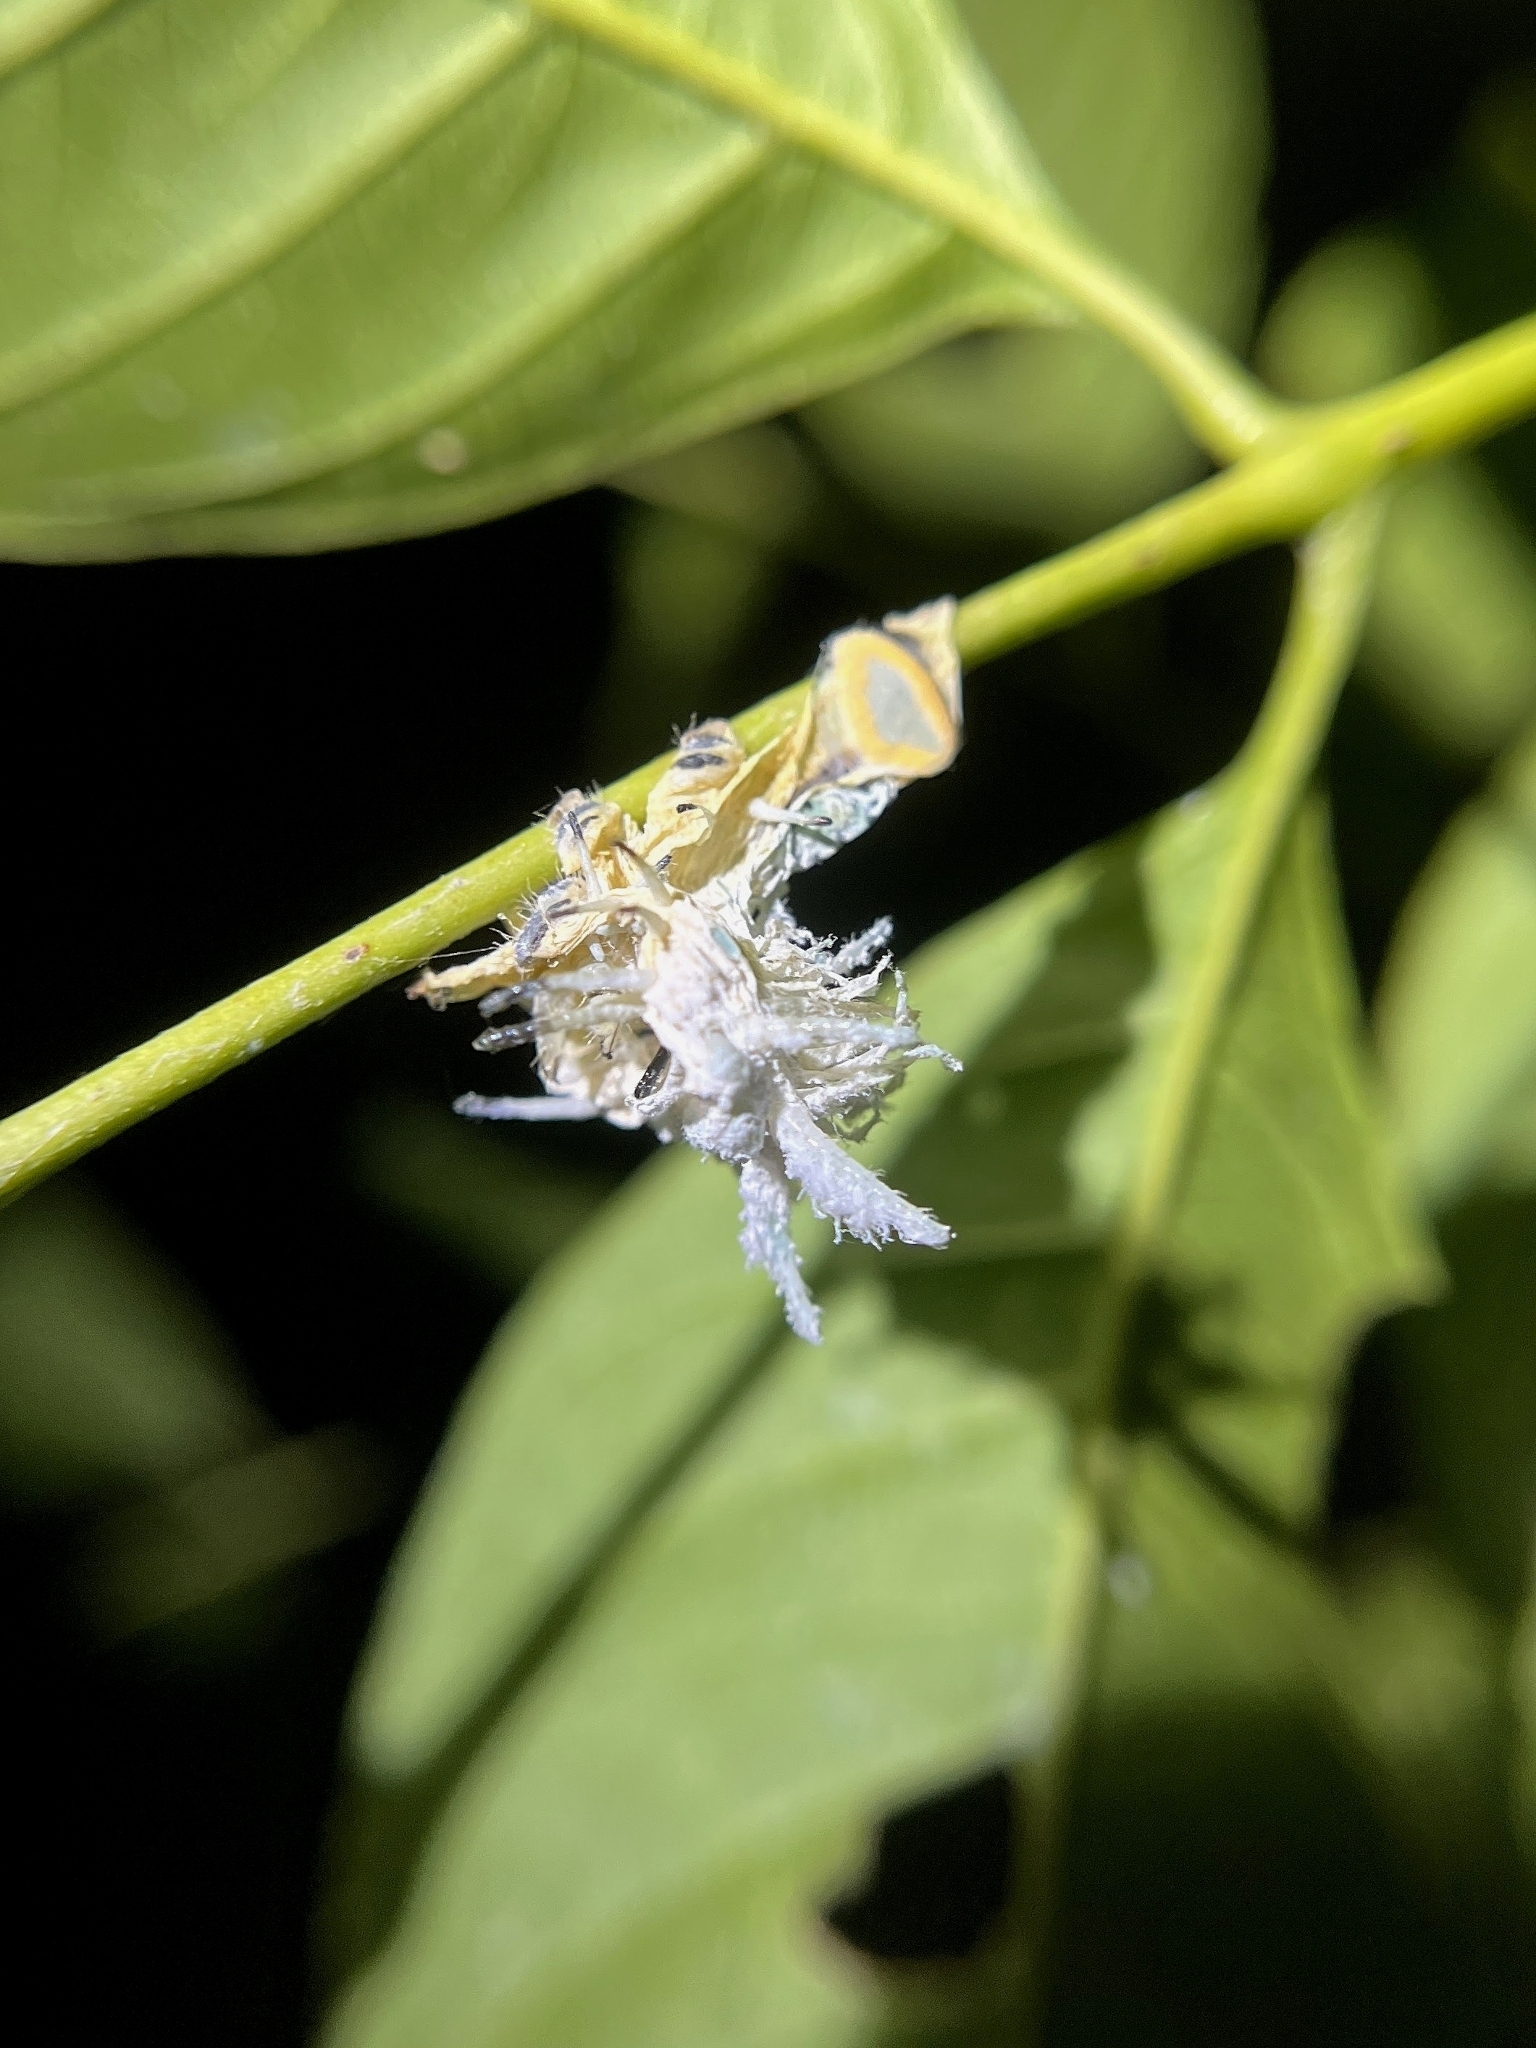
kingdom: Animalia
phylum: Arthropoda
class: Insecta
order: Lepidoptera
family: Saturniidae
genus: Attacus
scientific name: Attacus taprobanis
